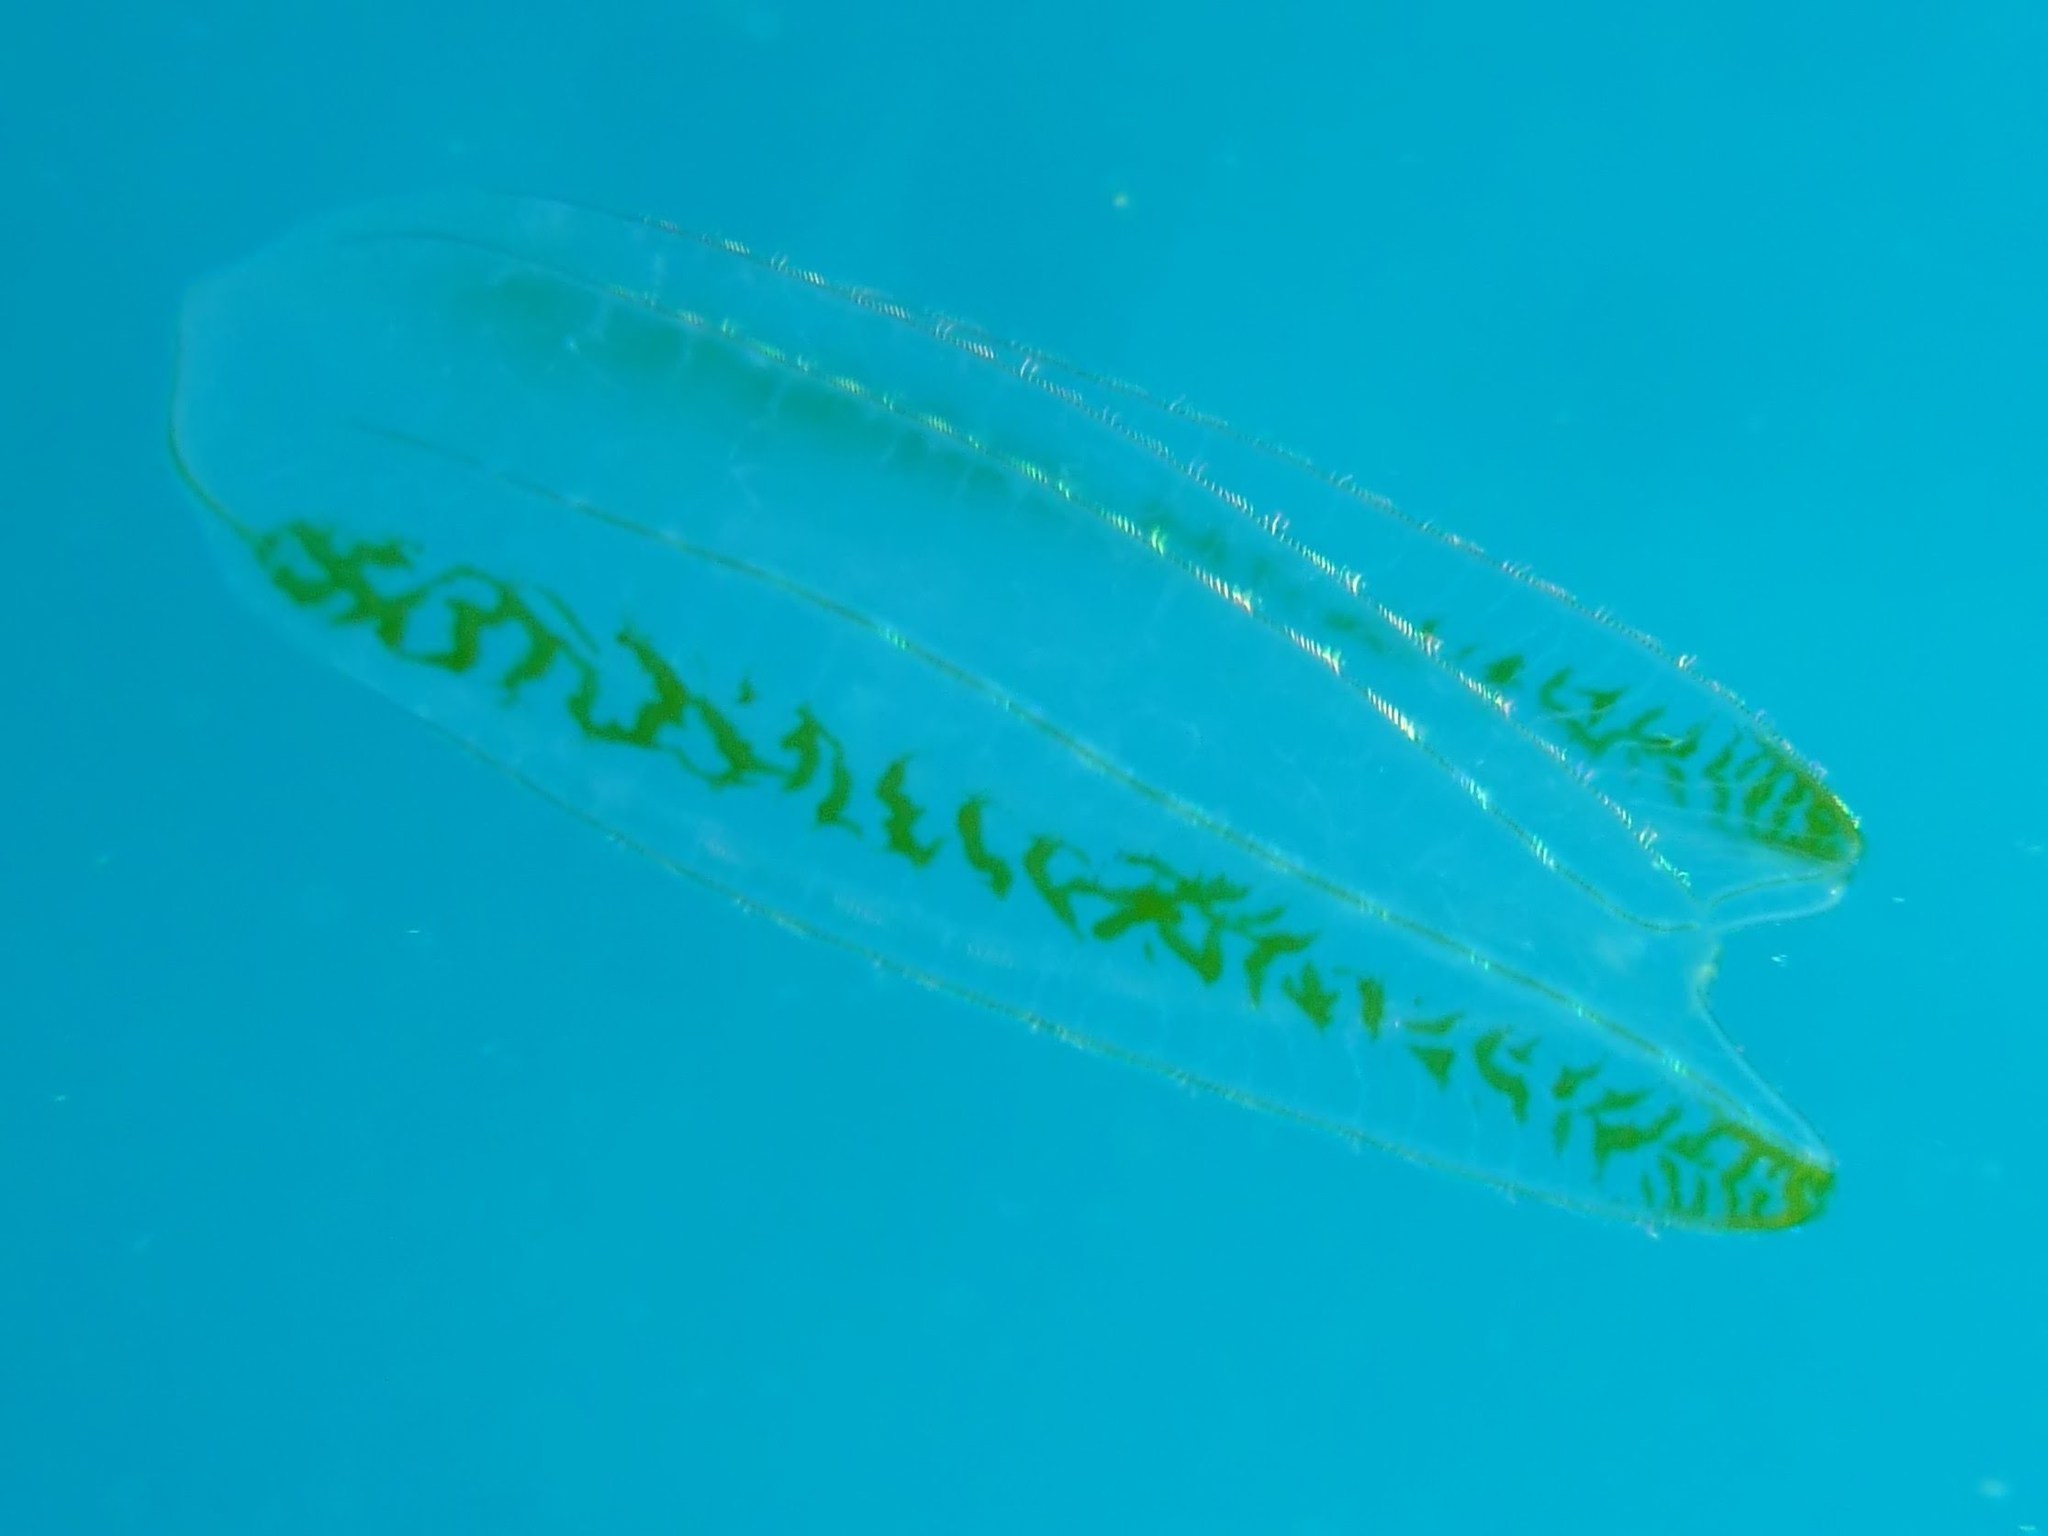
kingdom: Animalia
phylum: Ctenophora
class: Nuda
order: Beroida
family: Beroidae
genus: Neis
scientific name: Neis cordigera
